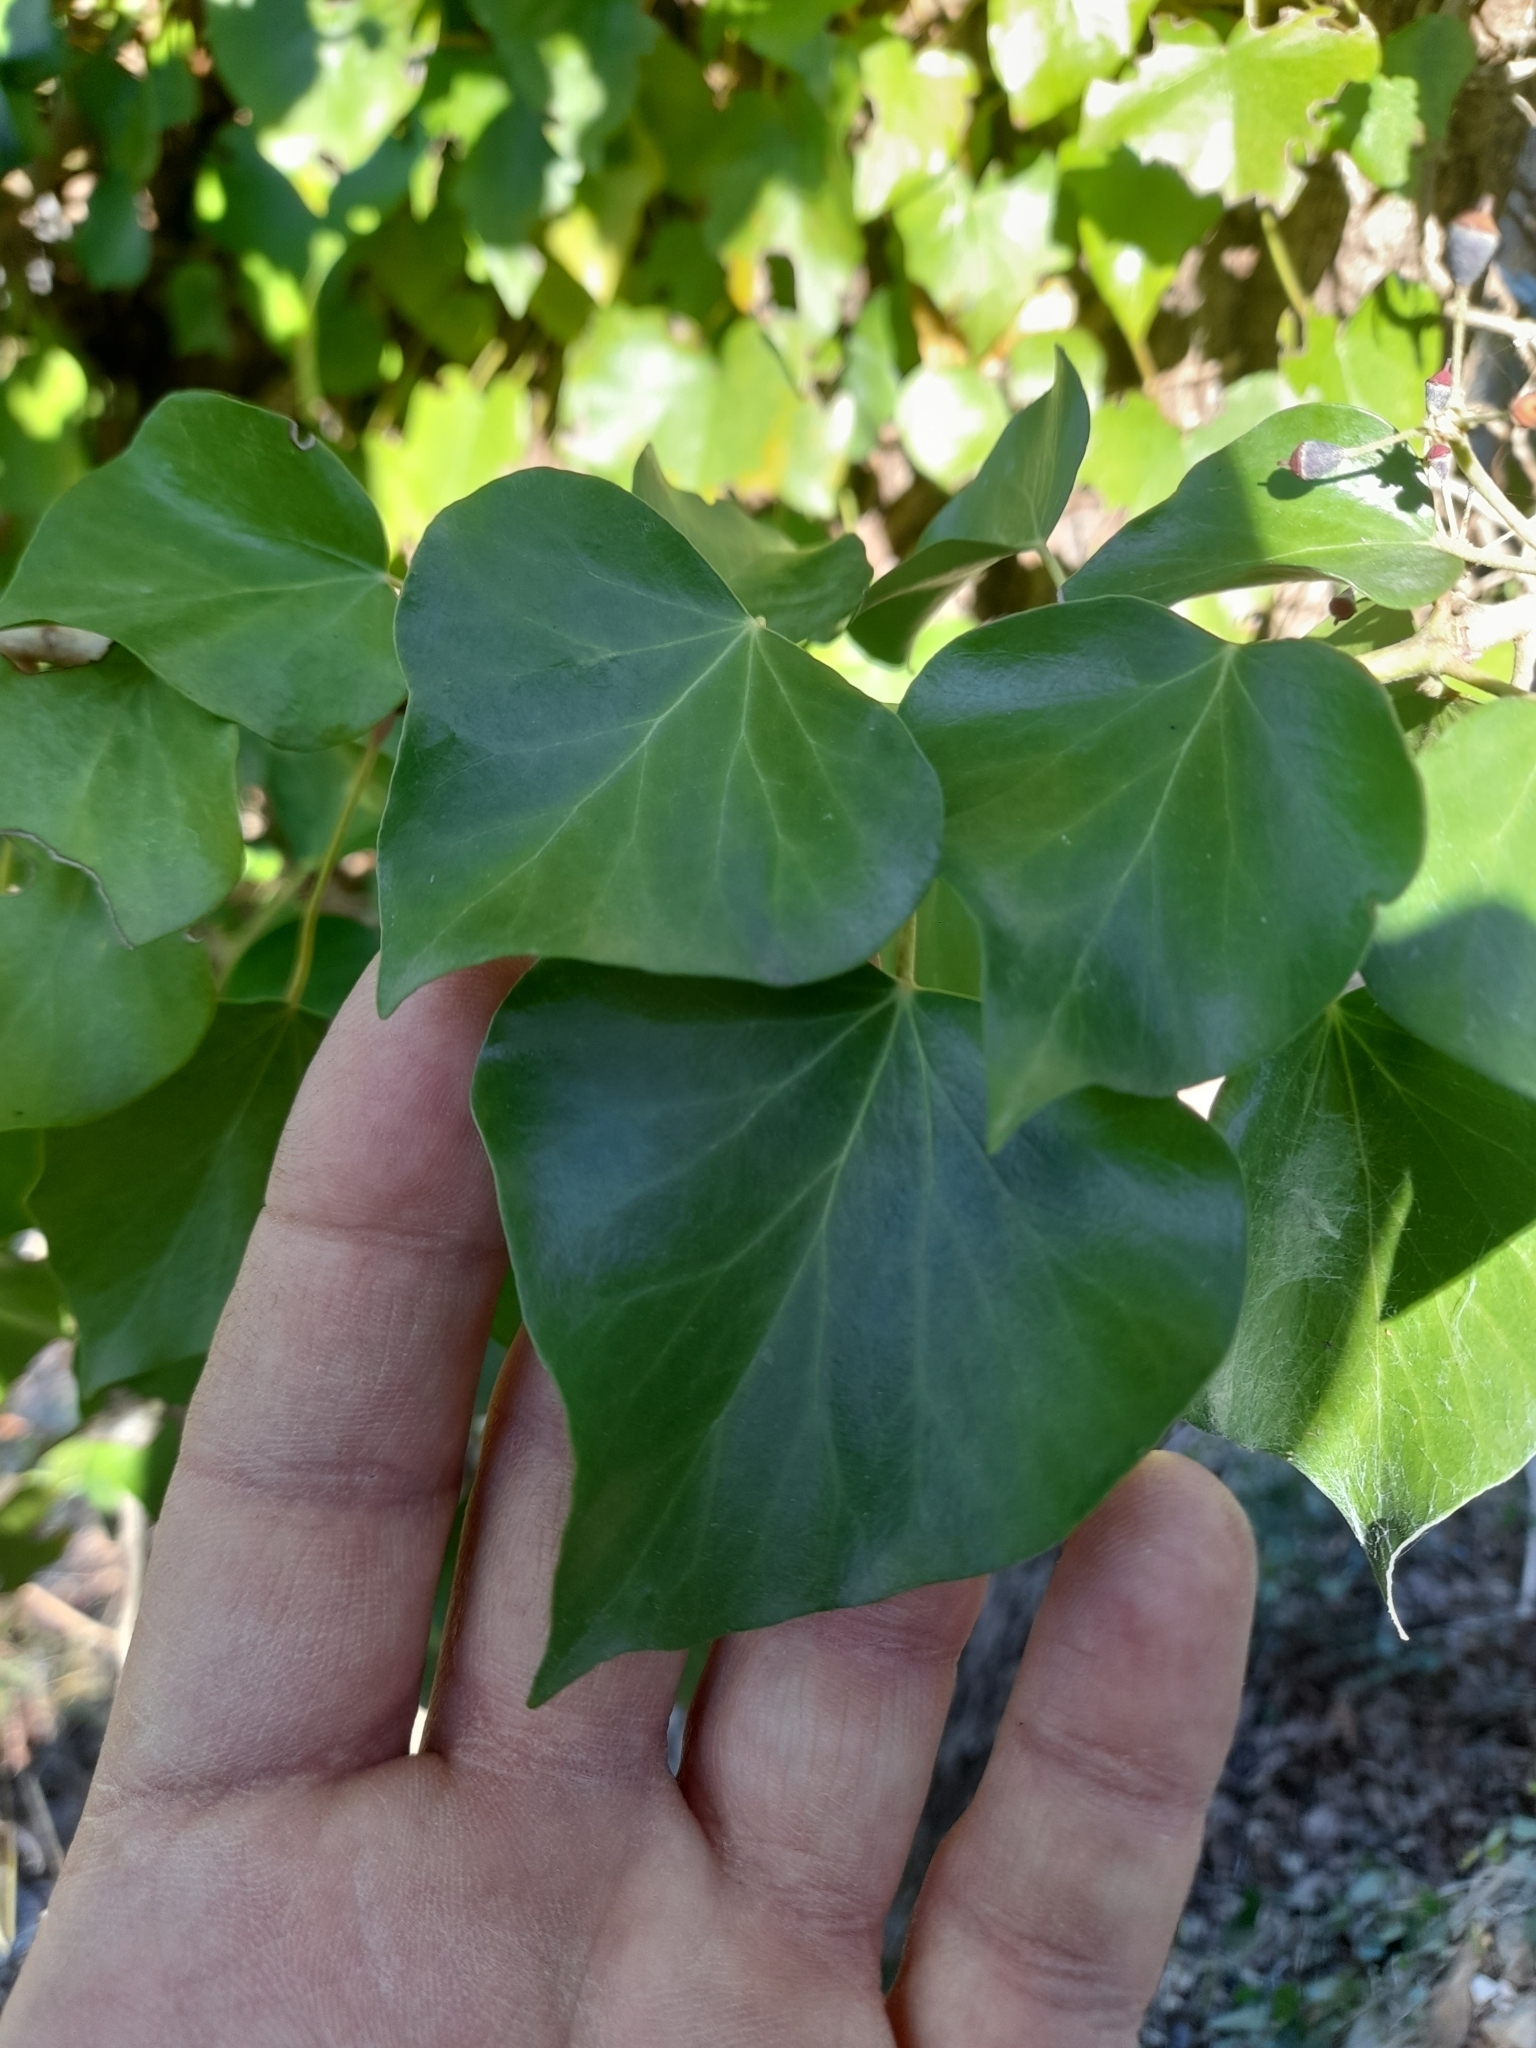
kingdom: Plantae
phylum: Tracheophyta
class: Magnoliopsida
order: Apiales
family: Araliaceae
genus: Hedera
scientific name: Hedera helix
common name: Ivy
